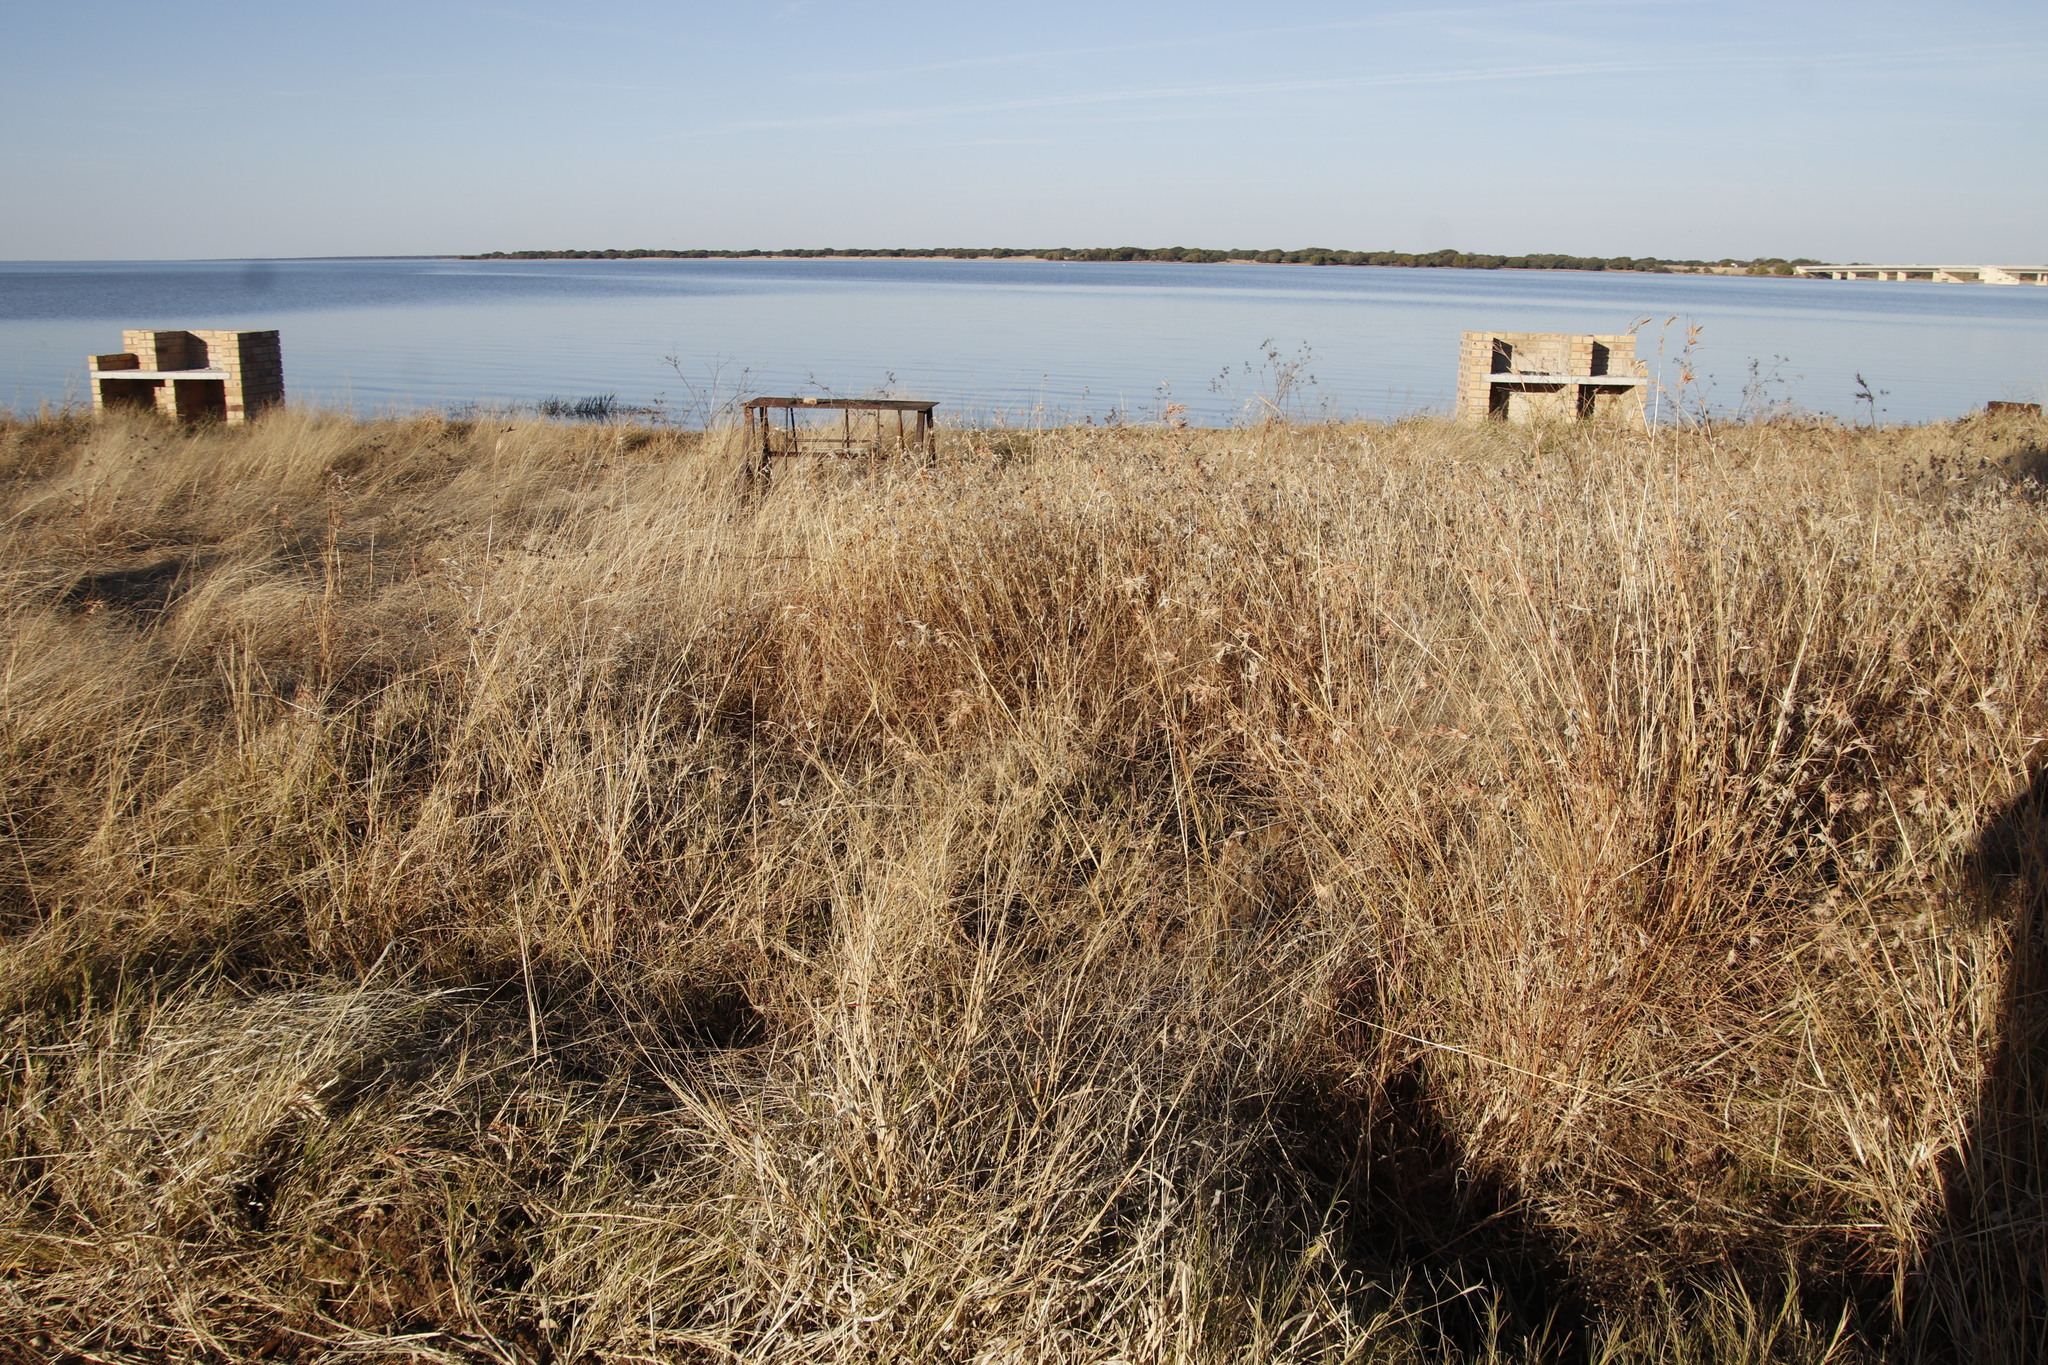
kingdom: Plantae
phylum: Tracheophyta
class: Liliopsida
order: Poales
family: Poaceae
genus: Themeda
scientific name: Themeda triandra
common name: Kangaroo grass
